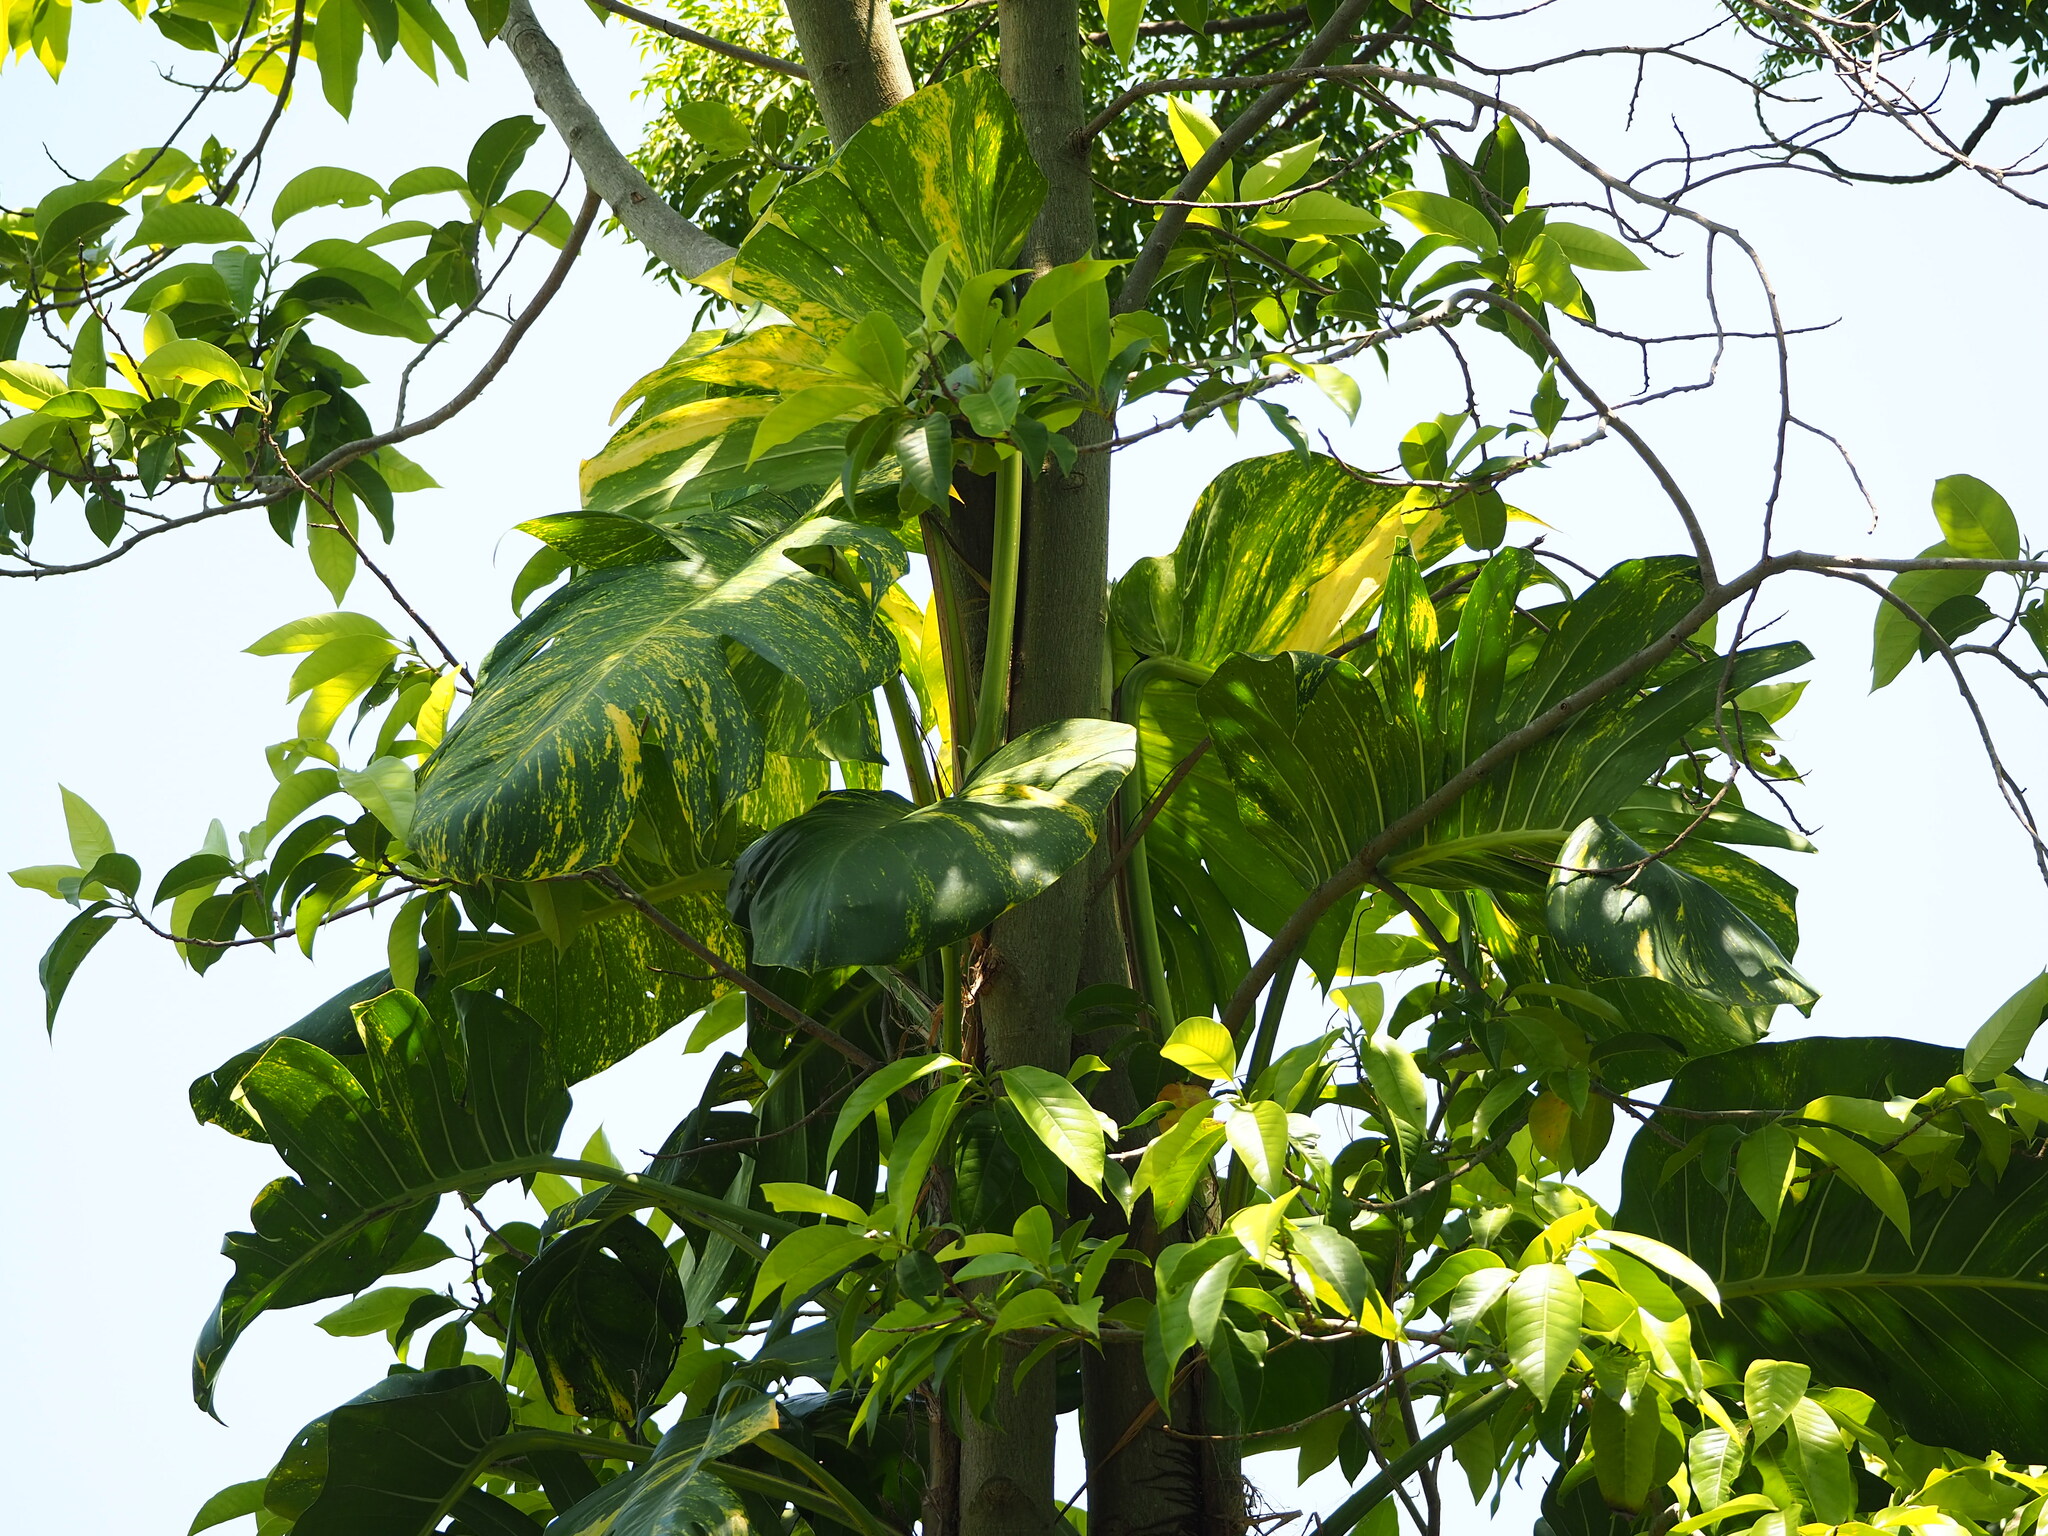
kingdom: Plantae
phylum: Tracheophyta
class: Liliopsida
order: Alismatales
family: Araceae
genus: Epipremnum
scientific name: Epipremnum aureum
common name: Golden hunter's-robe
